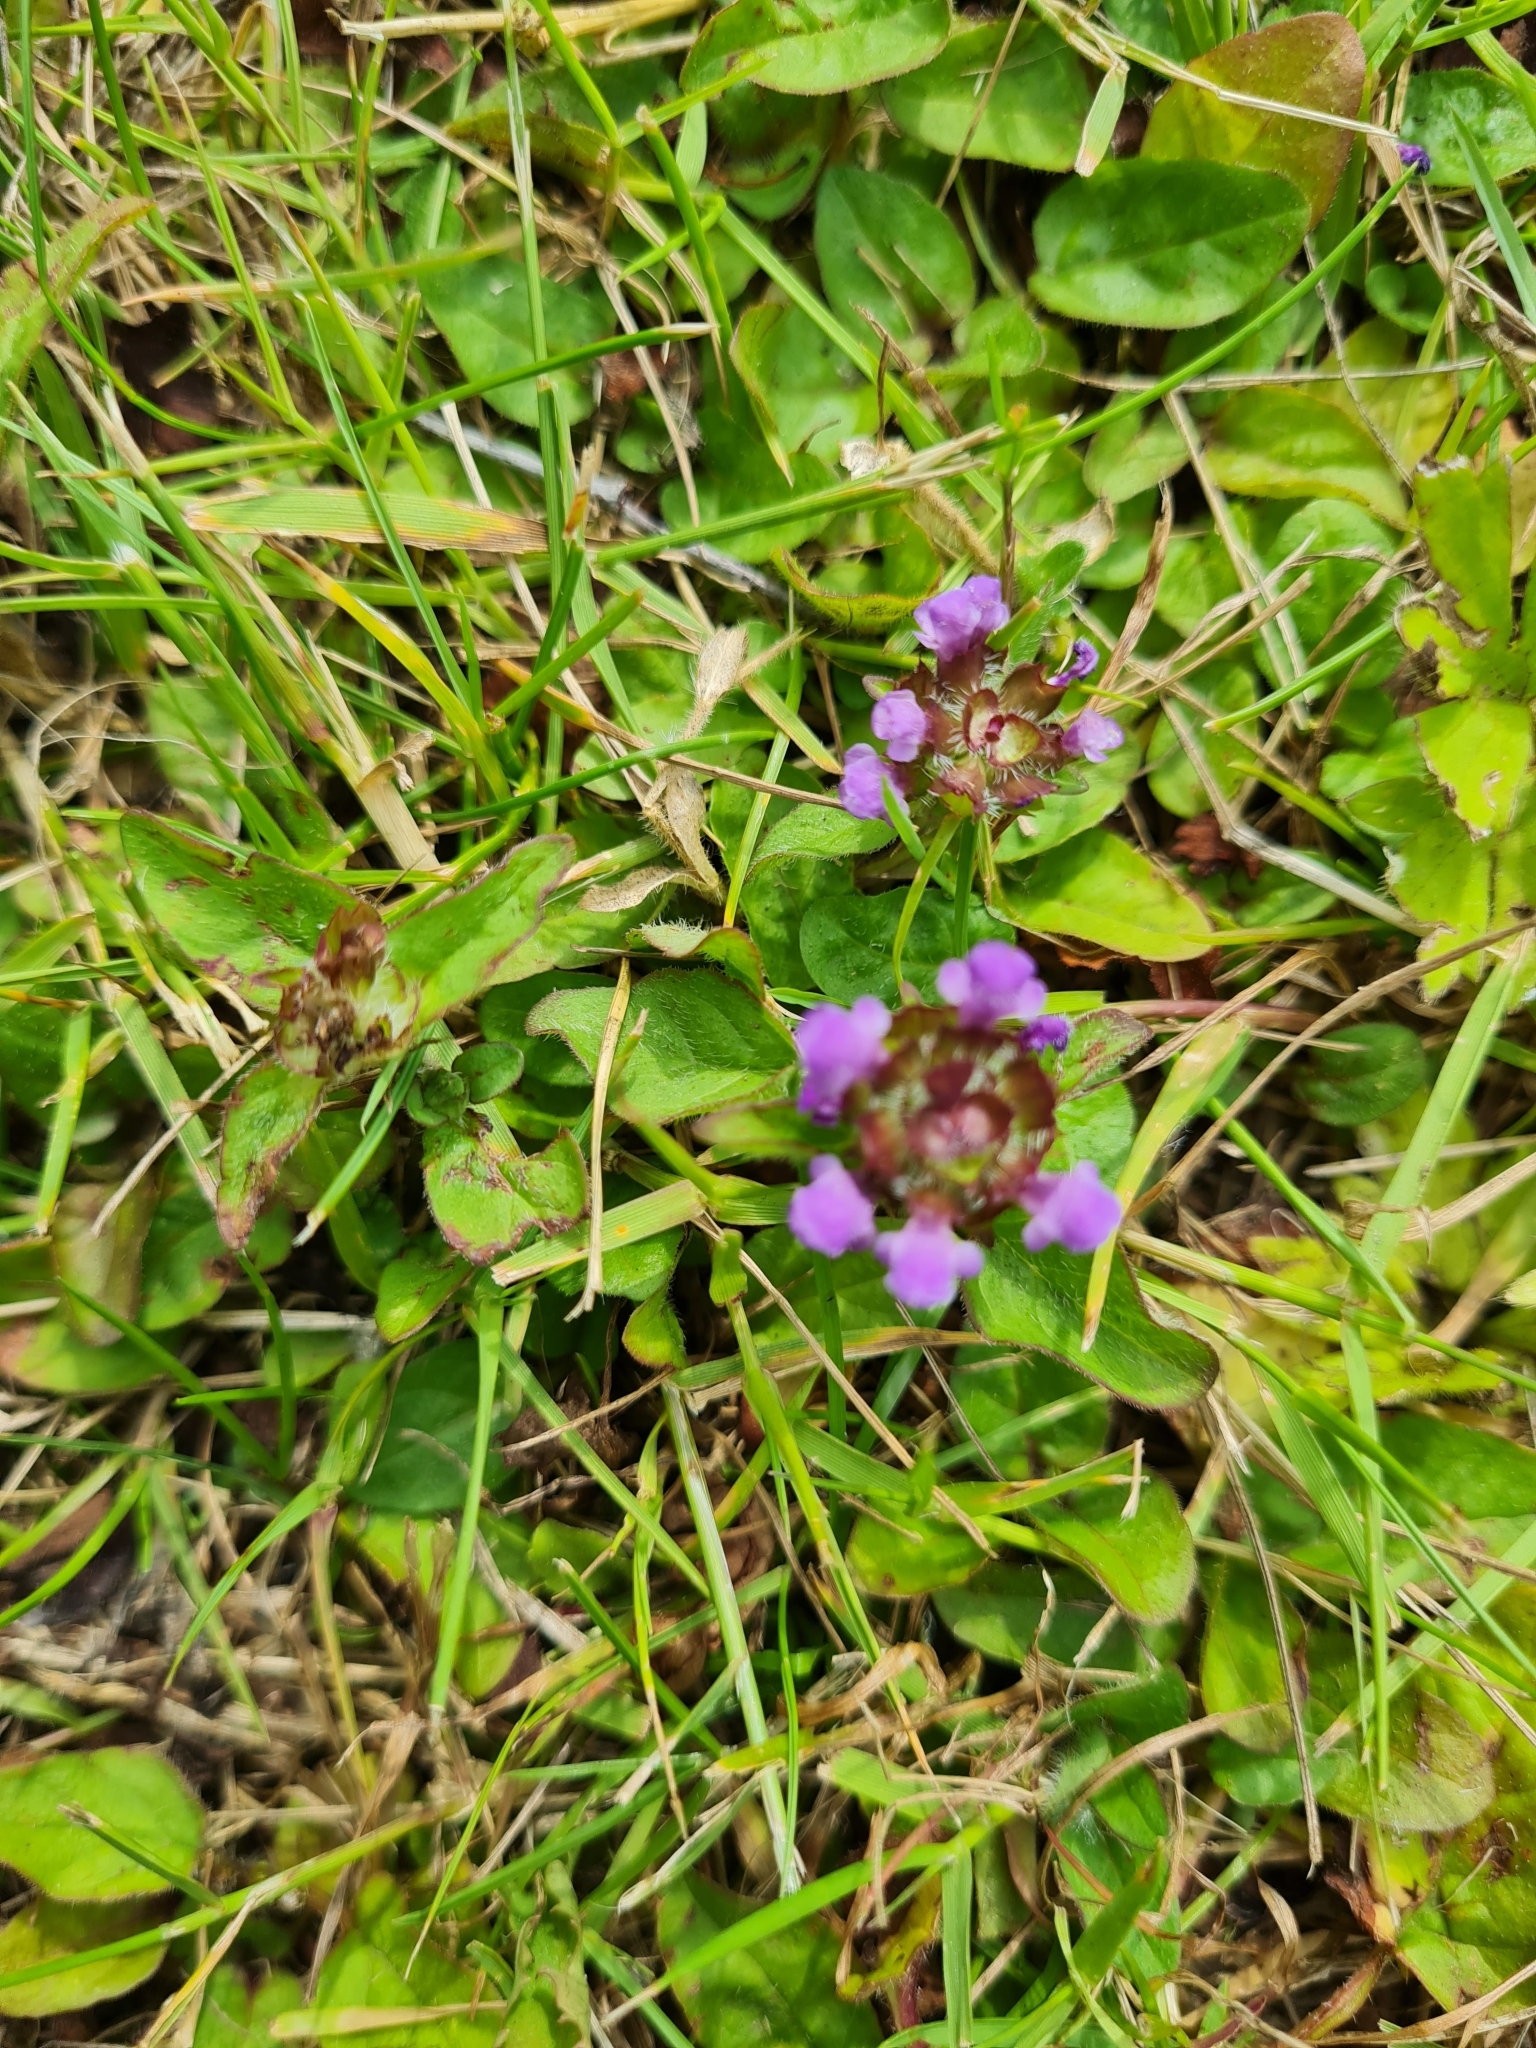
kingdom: Plantae
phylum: Tracheophyta
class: Magnoliopsida
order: Lamiales
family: Lamiaceae
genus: Prunella
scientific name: Prunella vulgaris
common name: Heal-all
